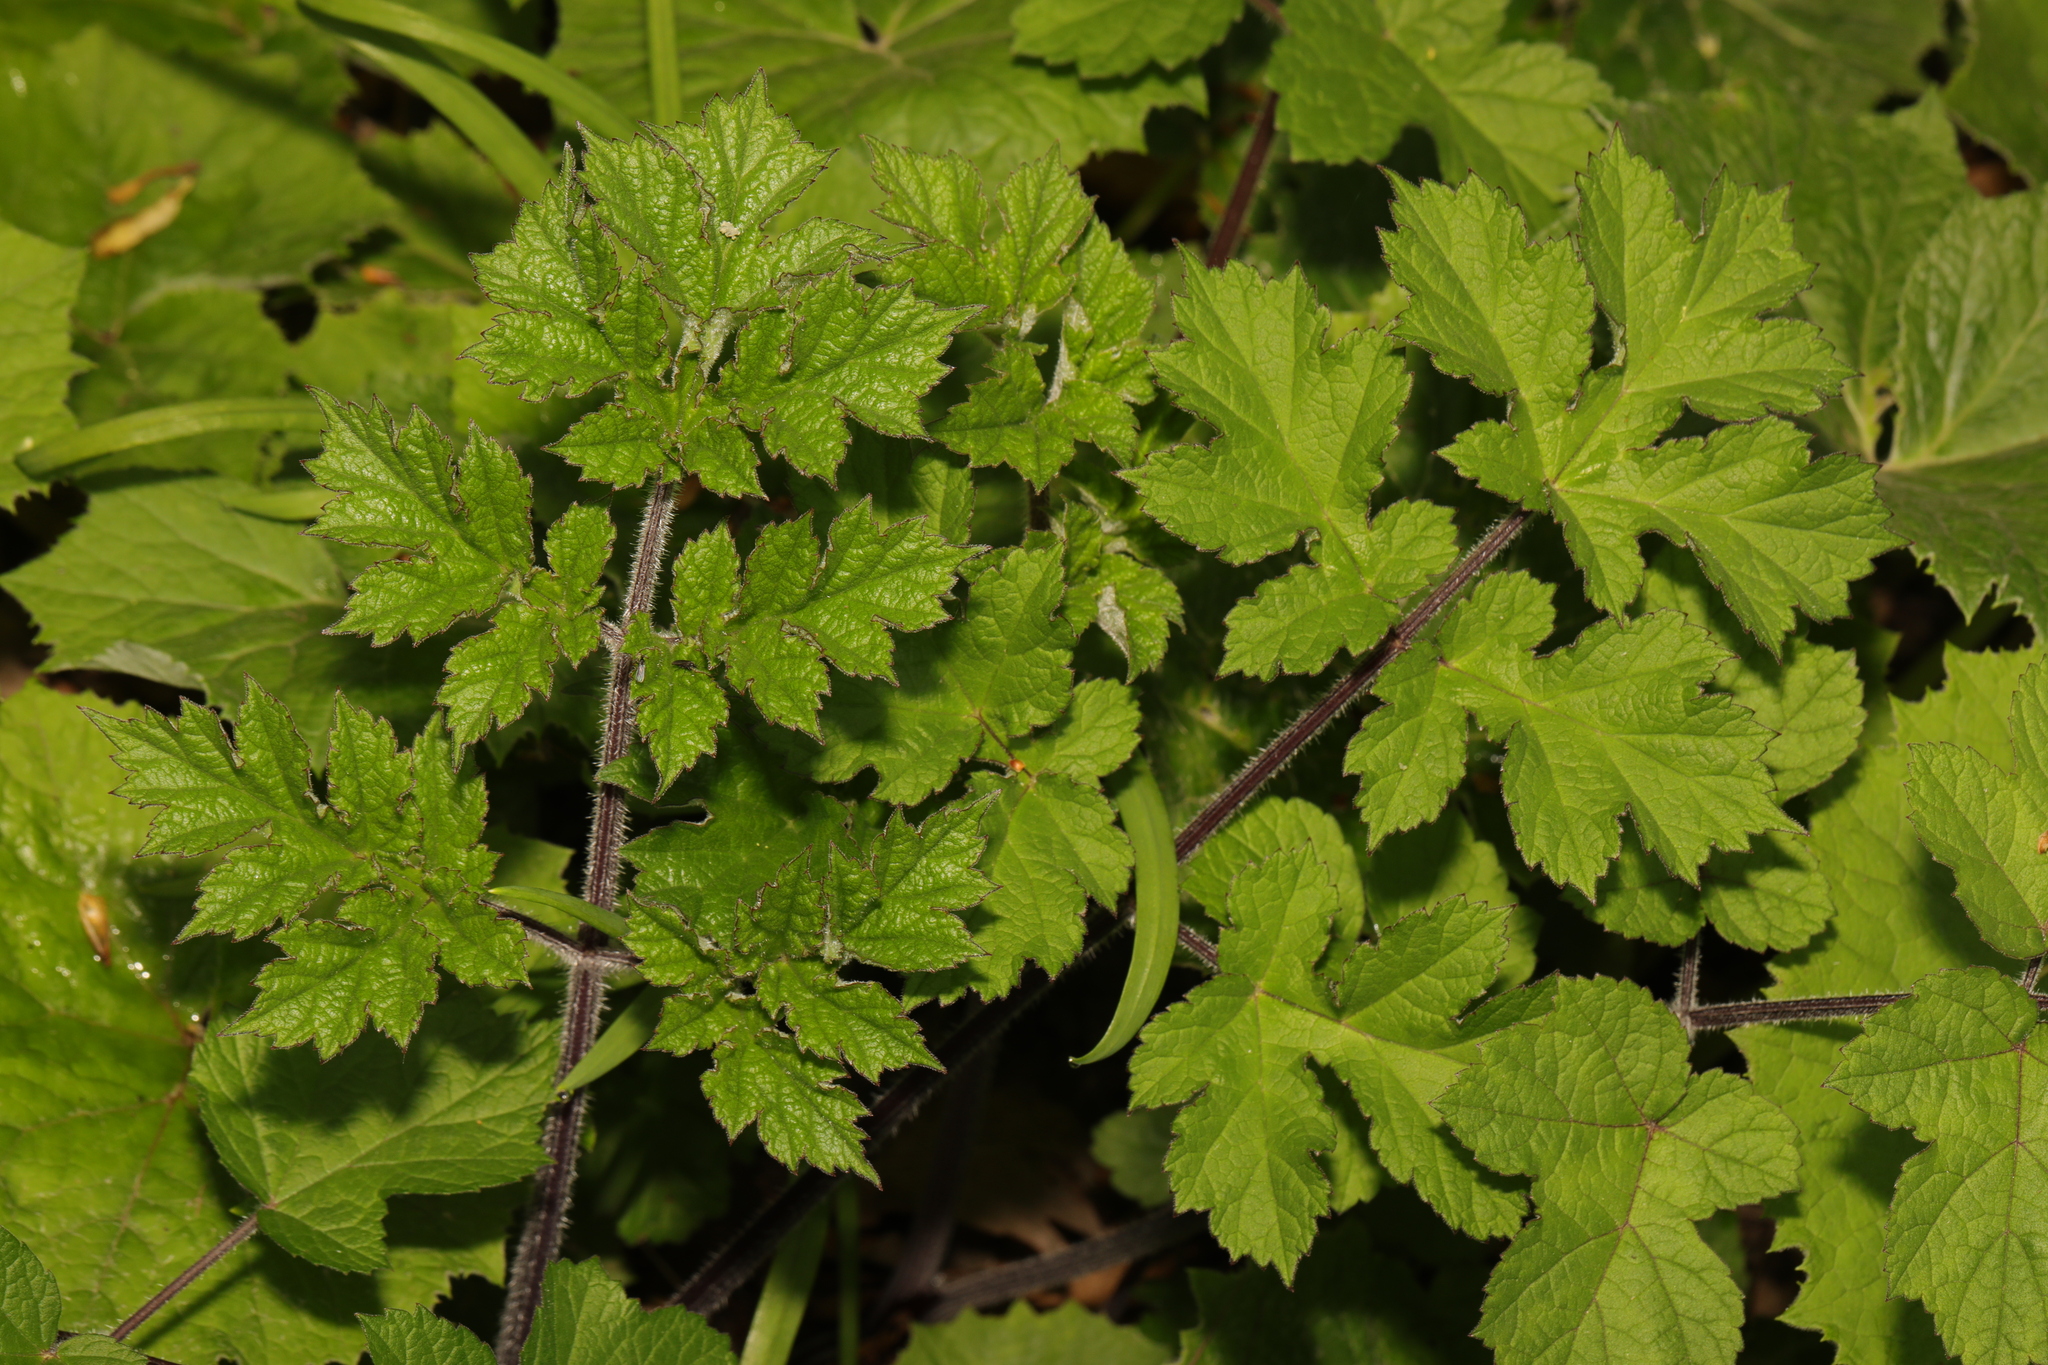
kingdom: Plantae
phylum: Tracheophyta
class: Magnoliopsida
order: Apiales
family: Apiaceae
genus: Heracleum
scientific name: Heracleum sphondylium
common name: Hogweed
